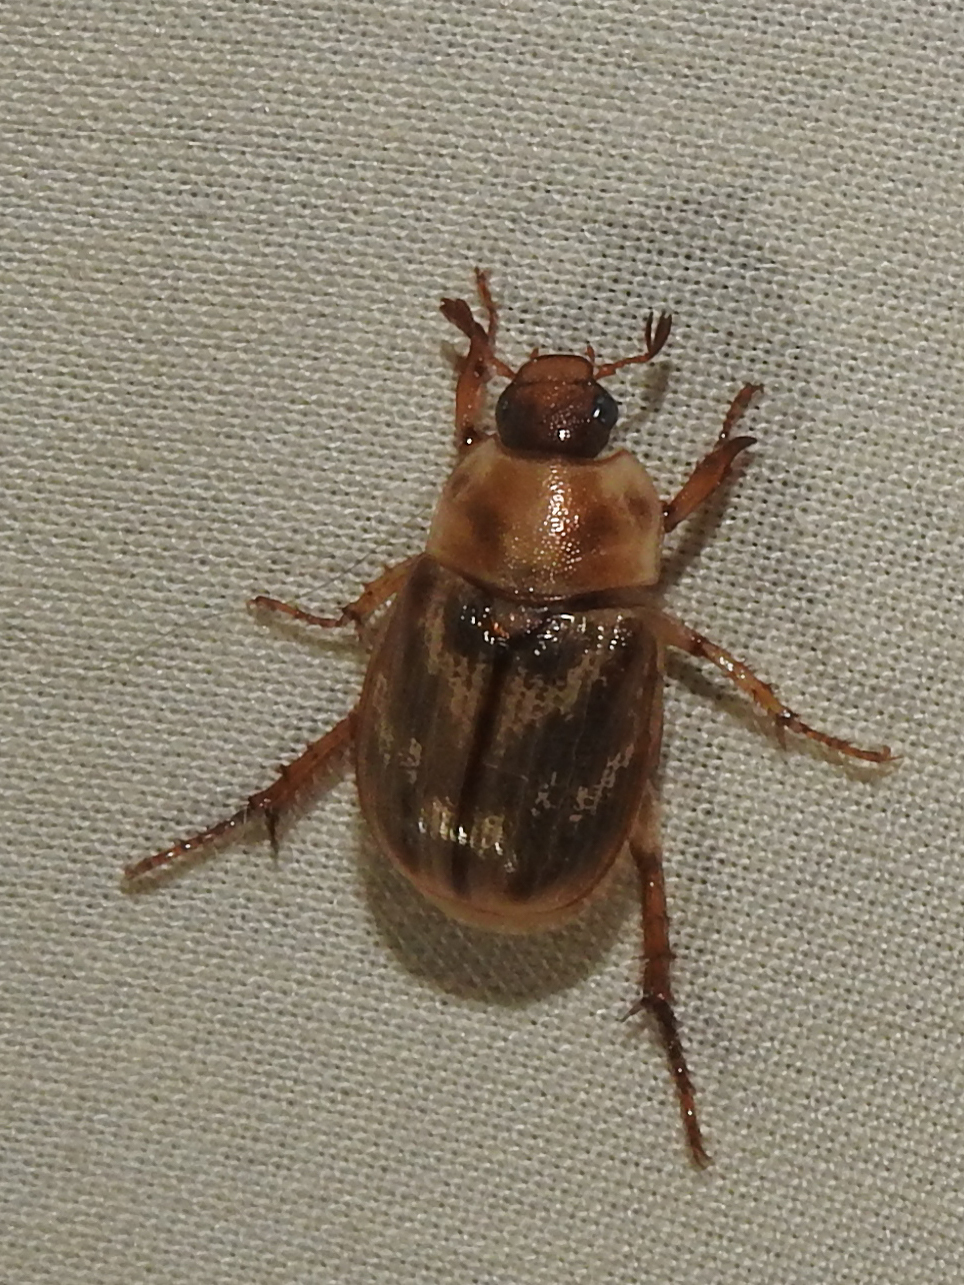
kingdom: Animalia
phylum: Arthropoda
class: Insecta
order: Coleoptera
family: Scarabaeidae
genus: Exomala
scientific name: Exomala orientalis
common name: Oriental beetle
